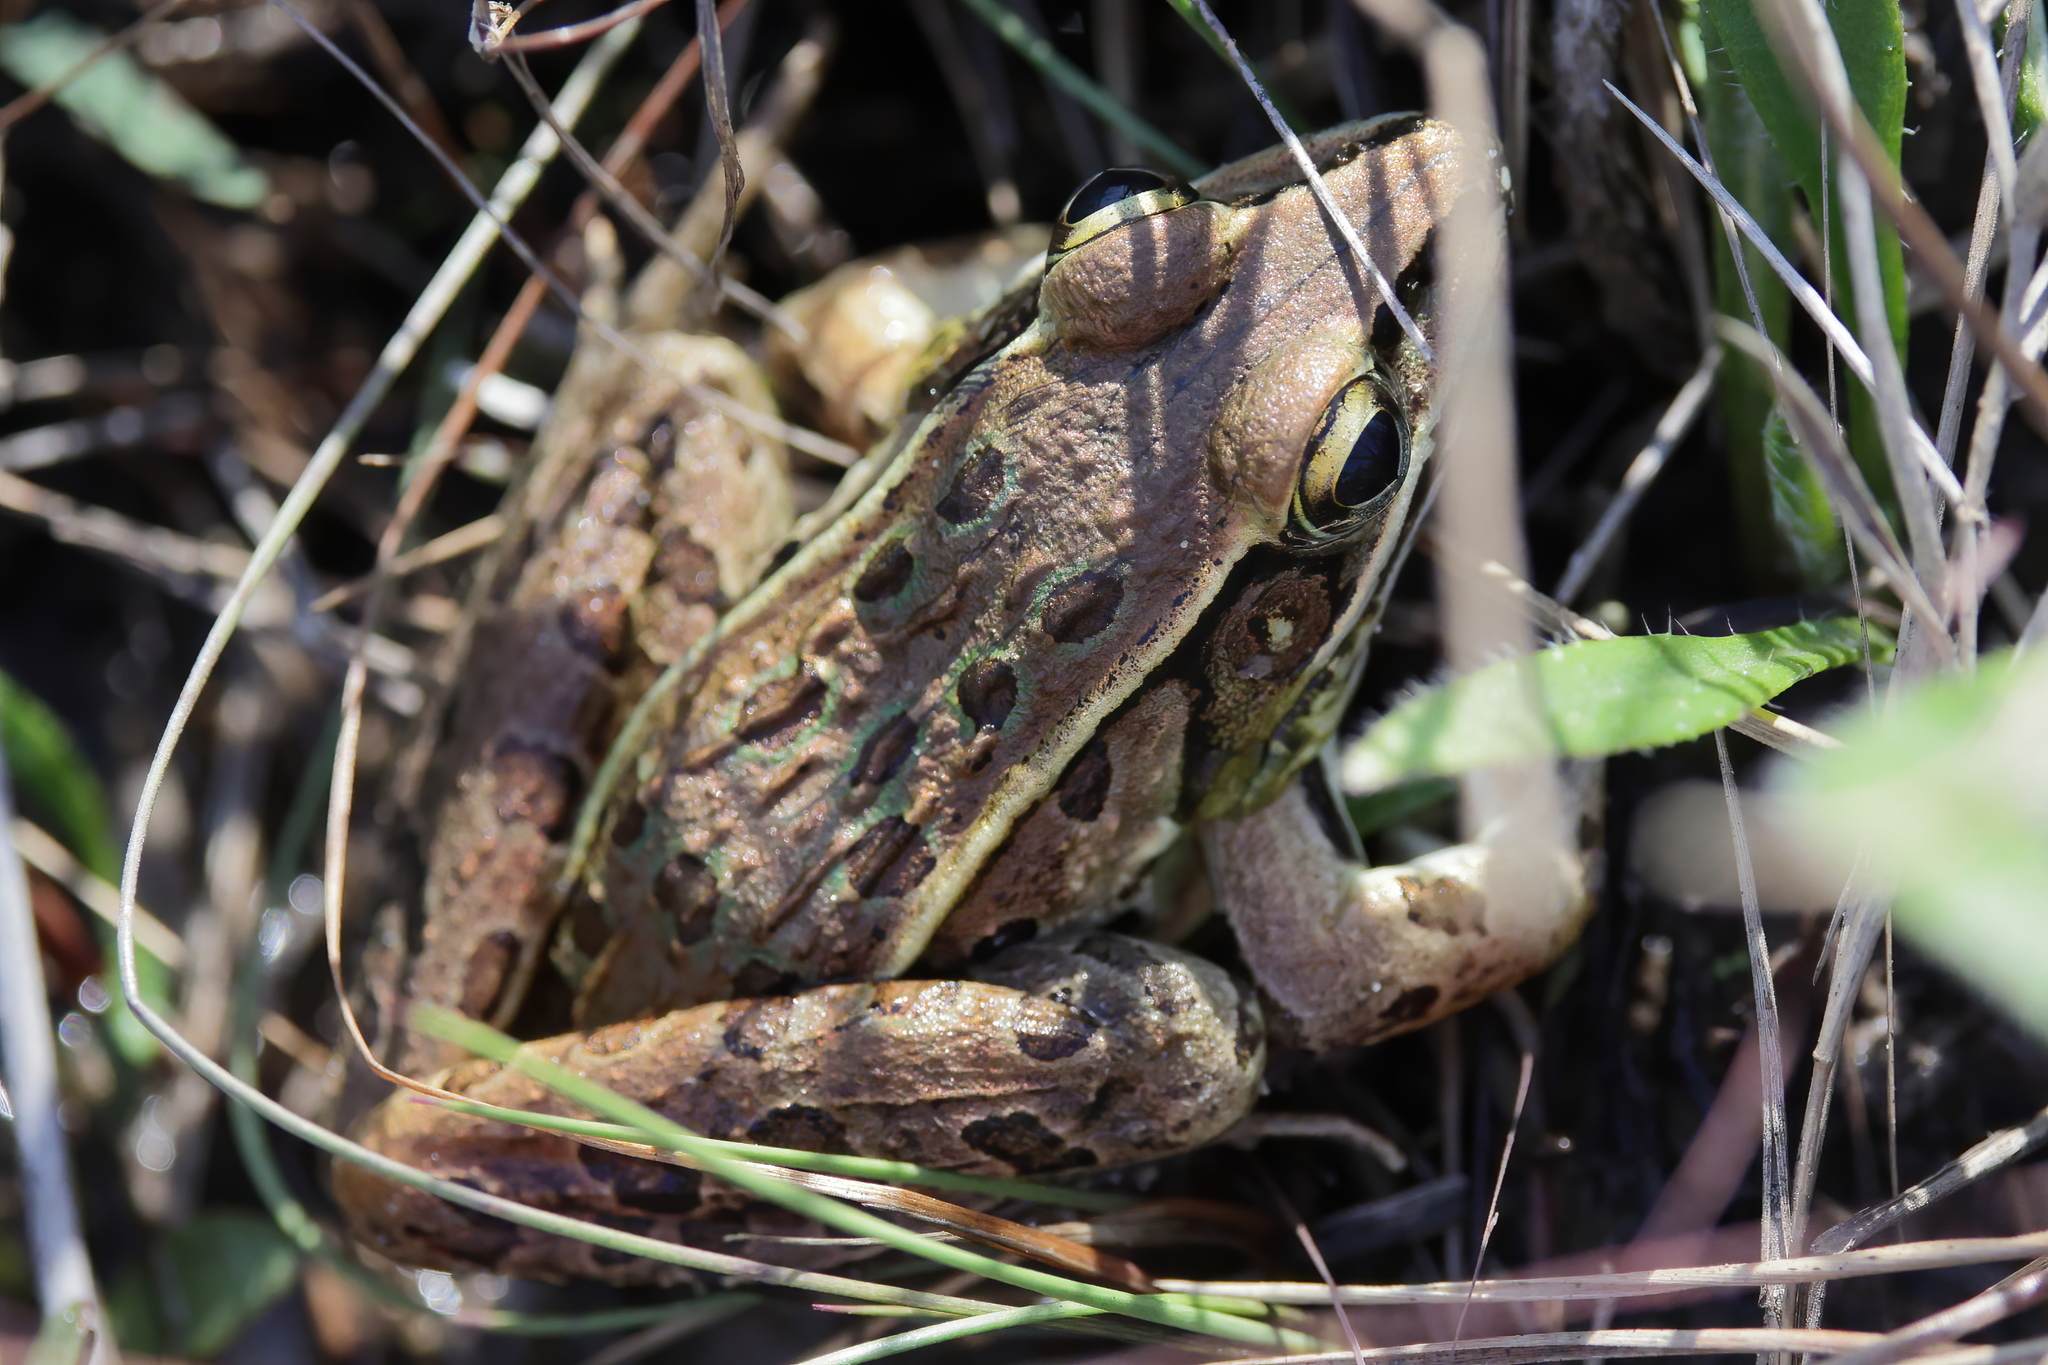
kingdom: Animalia
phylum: Chordata
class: Amphibia
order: Anura
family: Ranidae
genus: Lithobates
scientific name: Lithobates sphenocephalus
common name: Southern leopard frog
